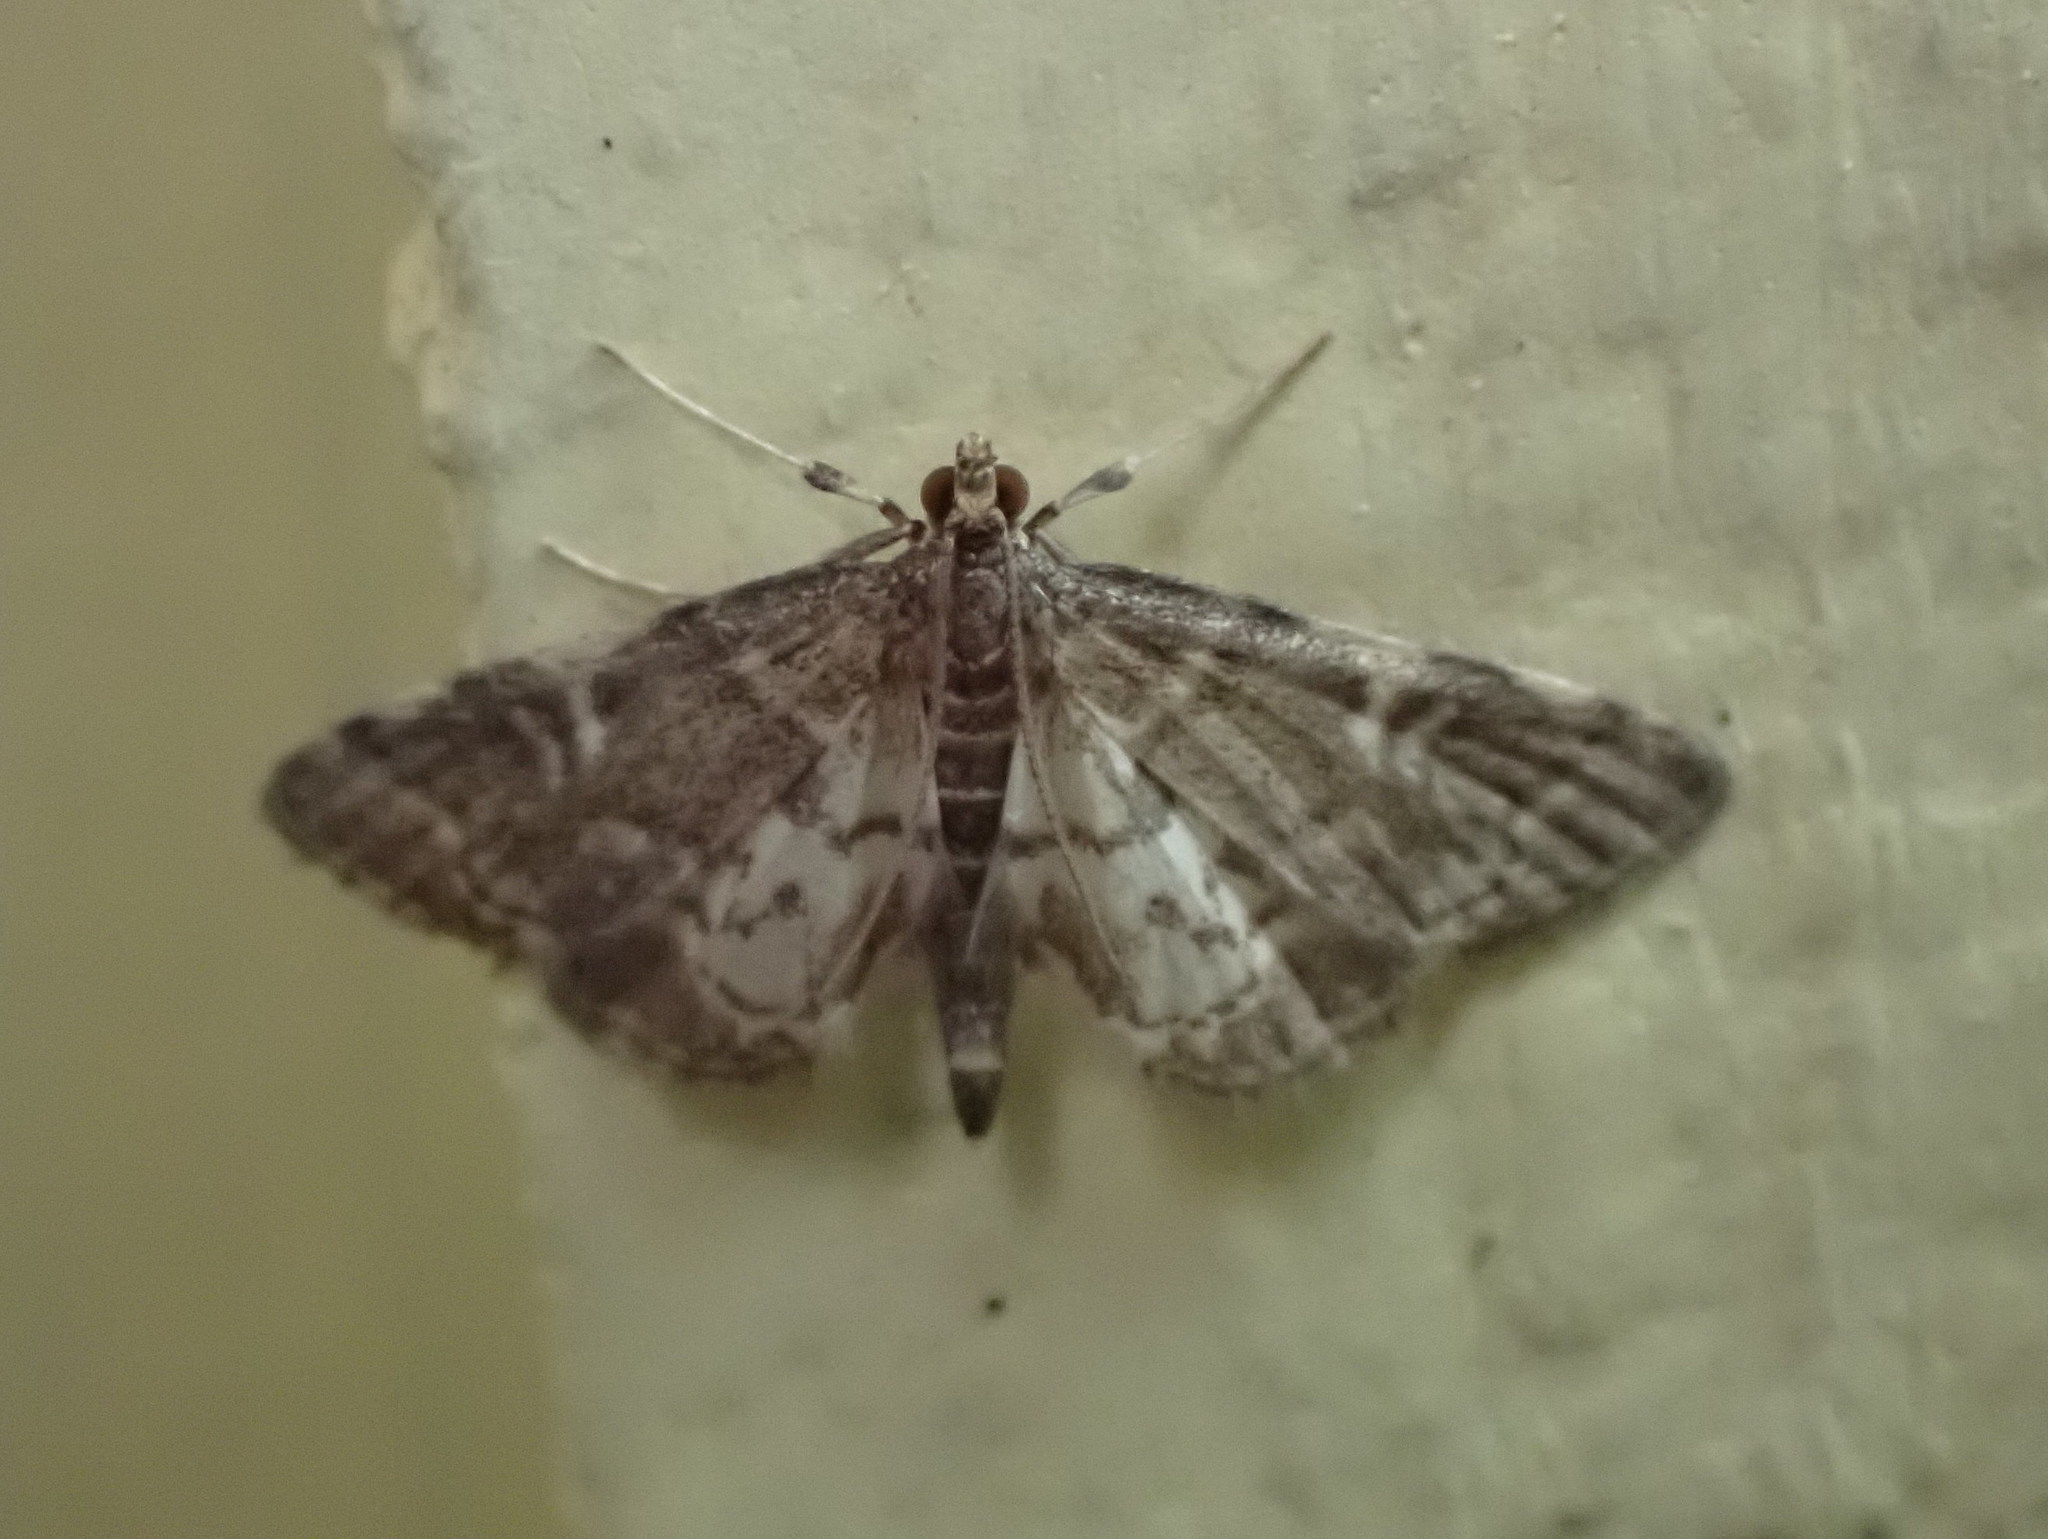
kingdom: Animalia
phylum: Arthropoda
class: Insecta
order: Lepidoptera
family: Crambidae
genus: Anageshna
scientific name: Anageshna primordialis
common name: Yellow-spotted webworm moth
